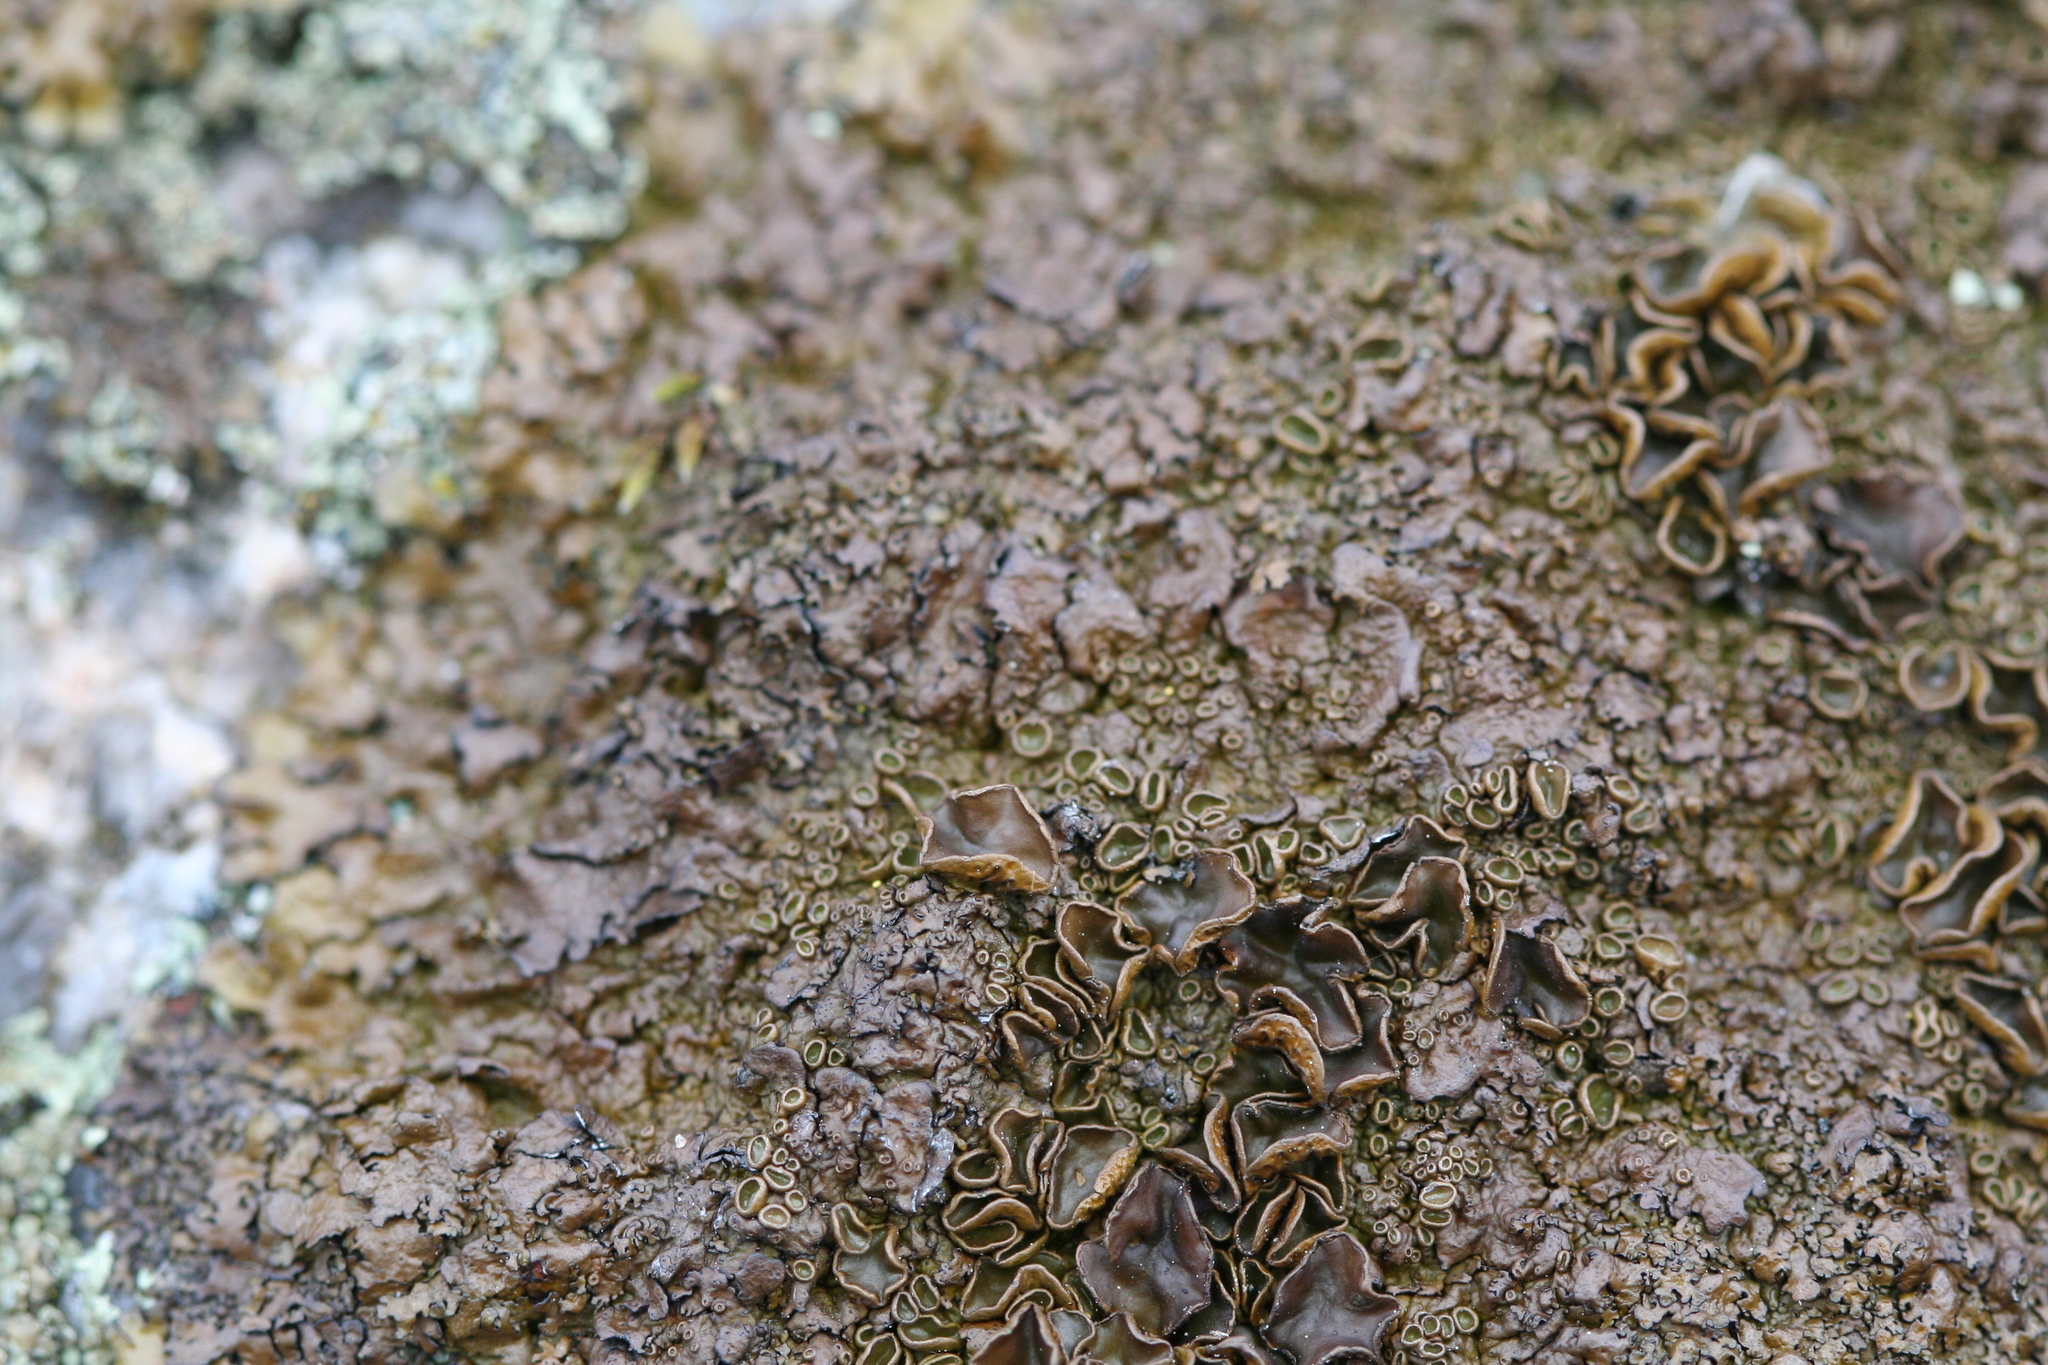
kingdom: Fungi
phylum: Ascomycota
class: Lecanoromycetes
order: Lecanorales
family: Parmeliaceae
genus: Xanthoparmelia
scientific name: Xanthoparmelia pulla
